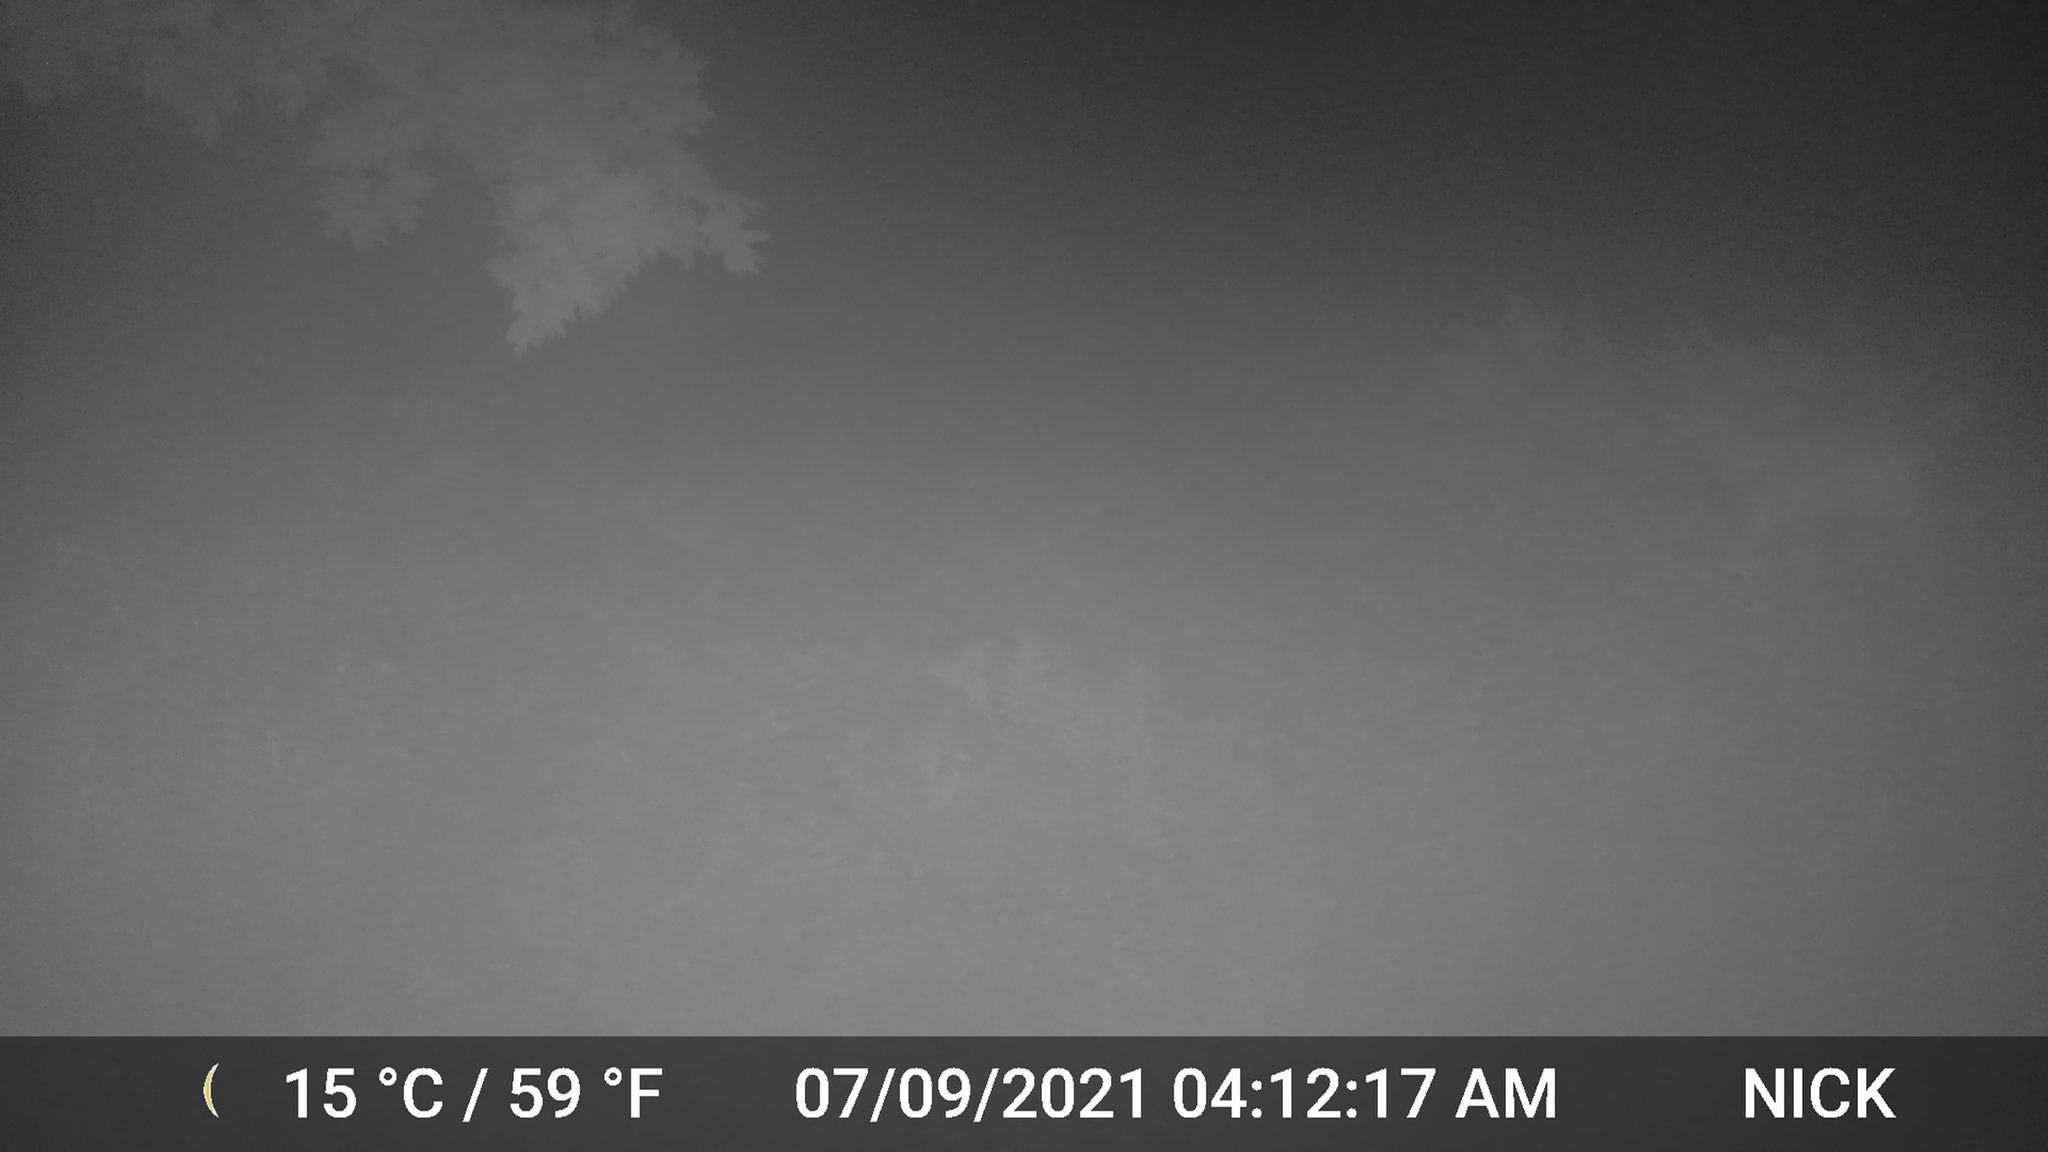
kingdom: Animalia
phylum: Chordata
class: Mammalia
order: Artiodactyla
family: Cervidae
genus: Odocoileus
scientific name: Odocoileus virginianus
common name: White-tailed deer
